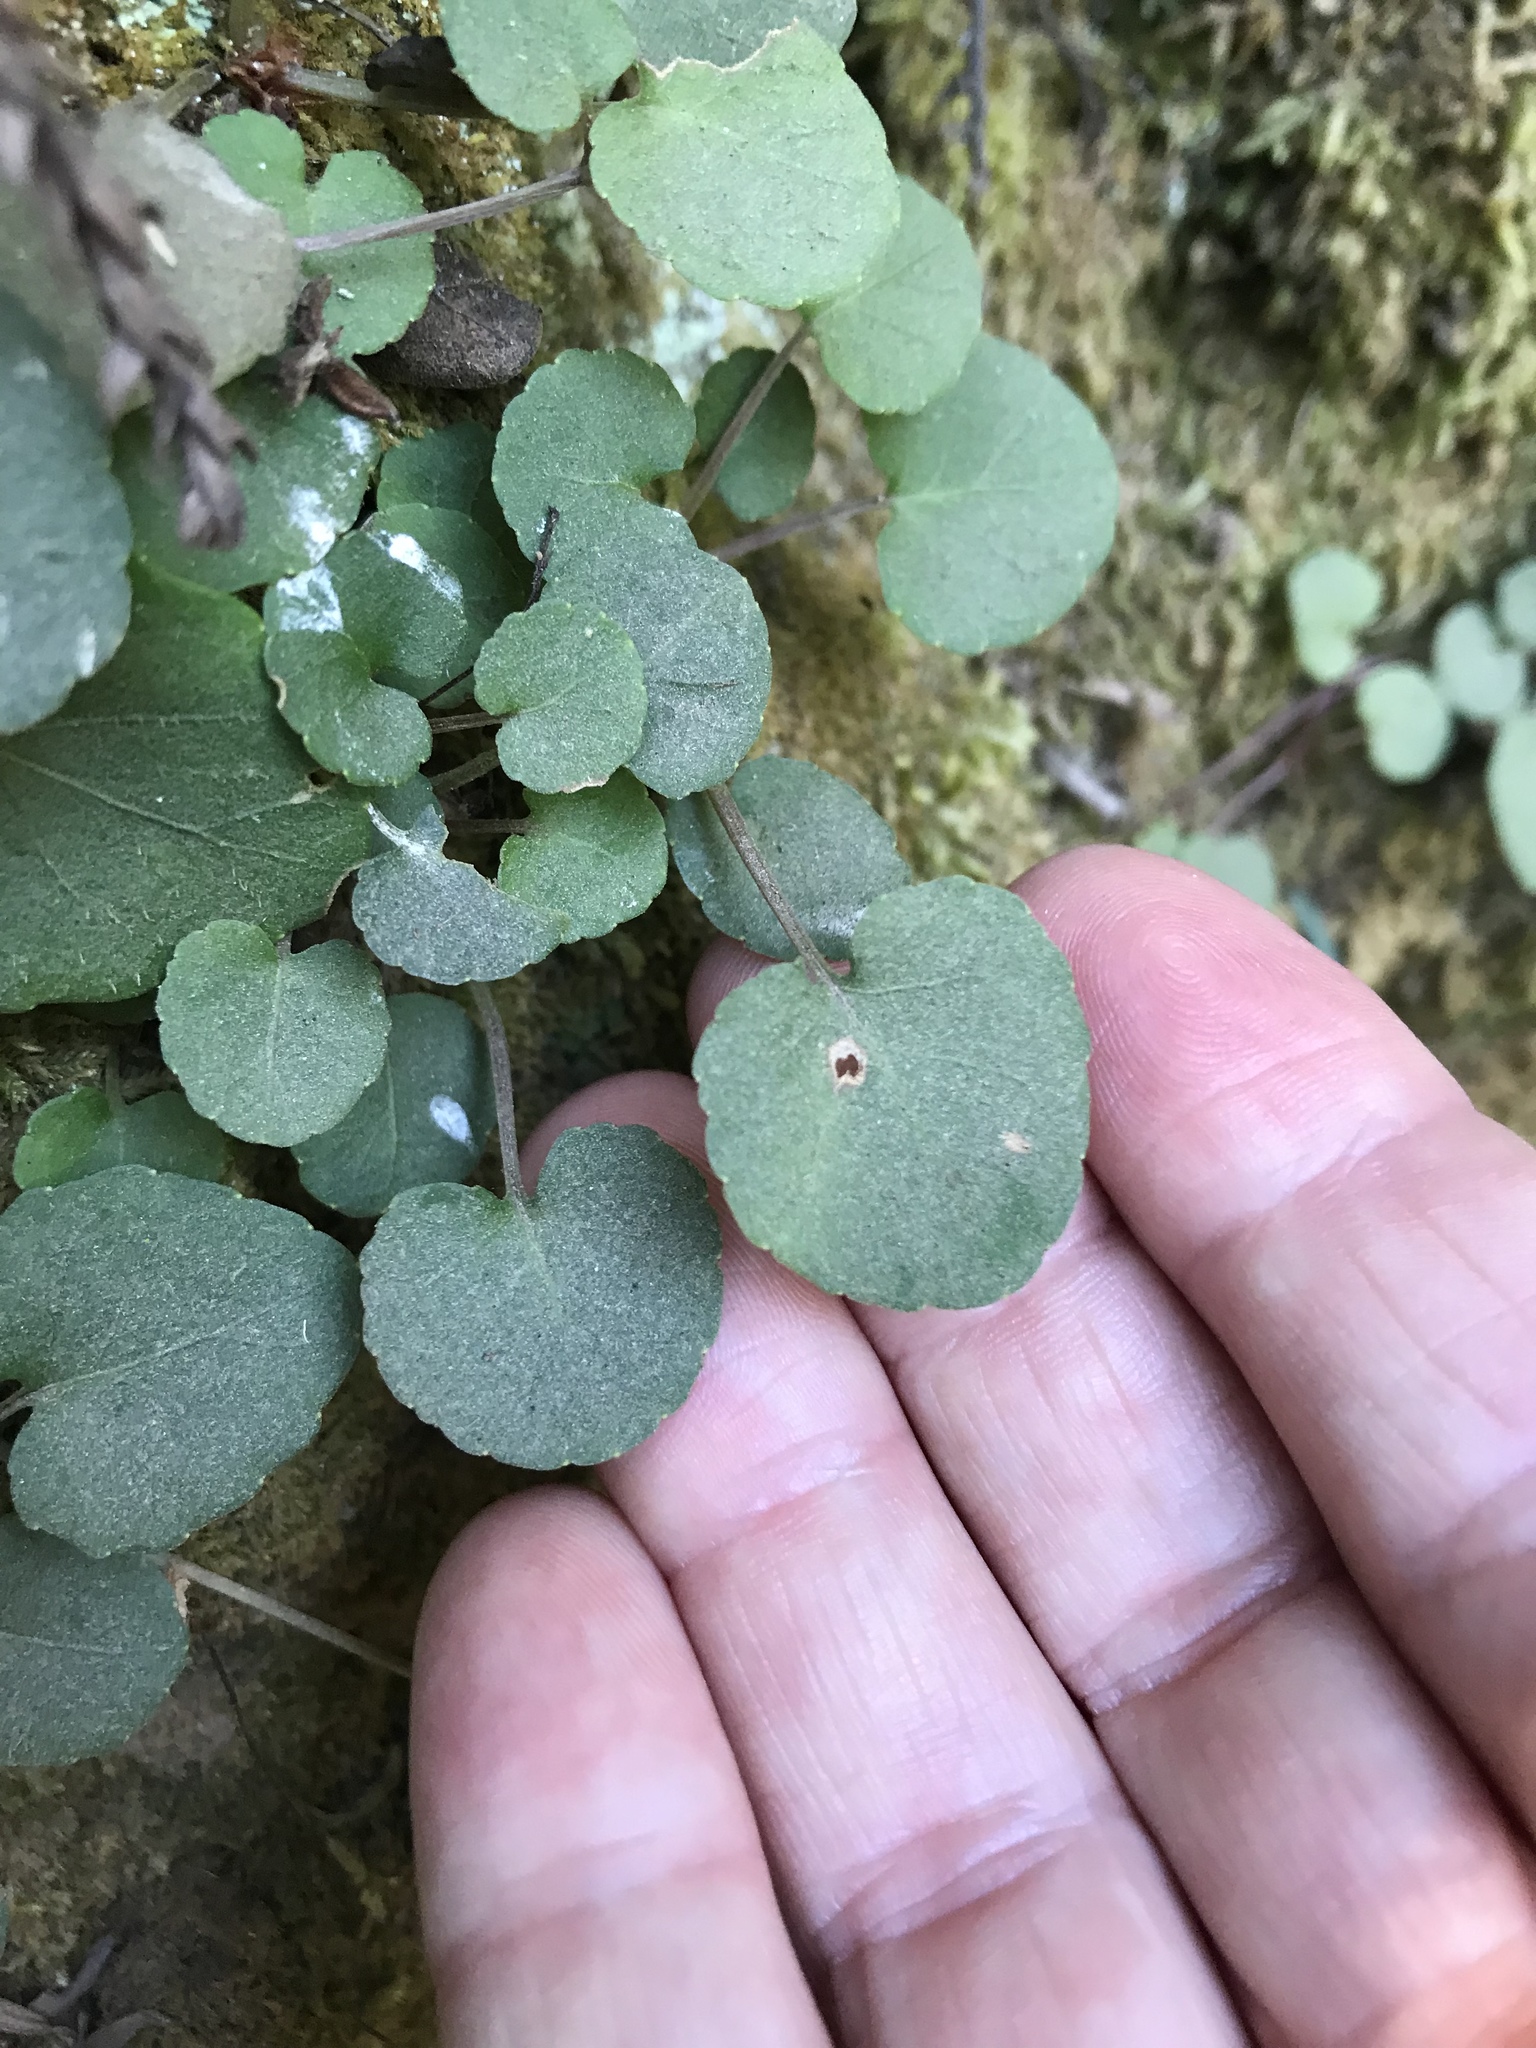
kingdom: Plantae
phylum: Tracheophyta
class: Magnoliopsida
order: Malpighiales
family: Violaceae
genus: Viola
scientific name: Viola sempervirens
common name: Evergreen violet
